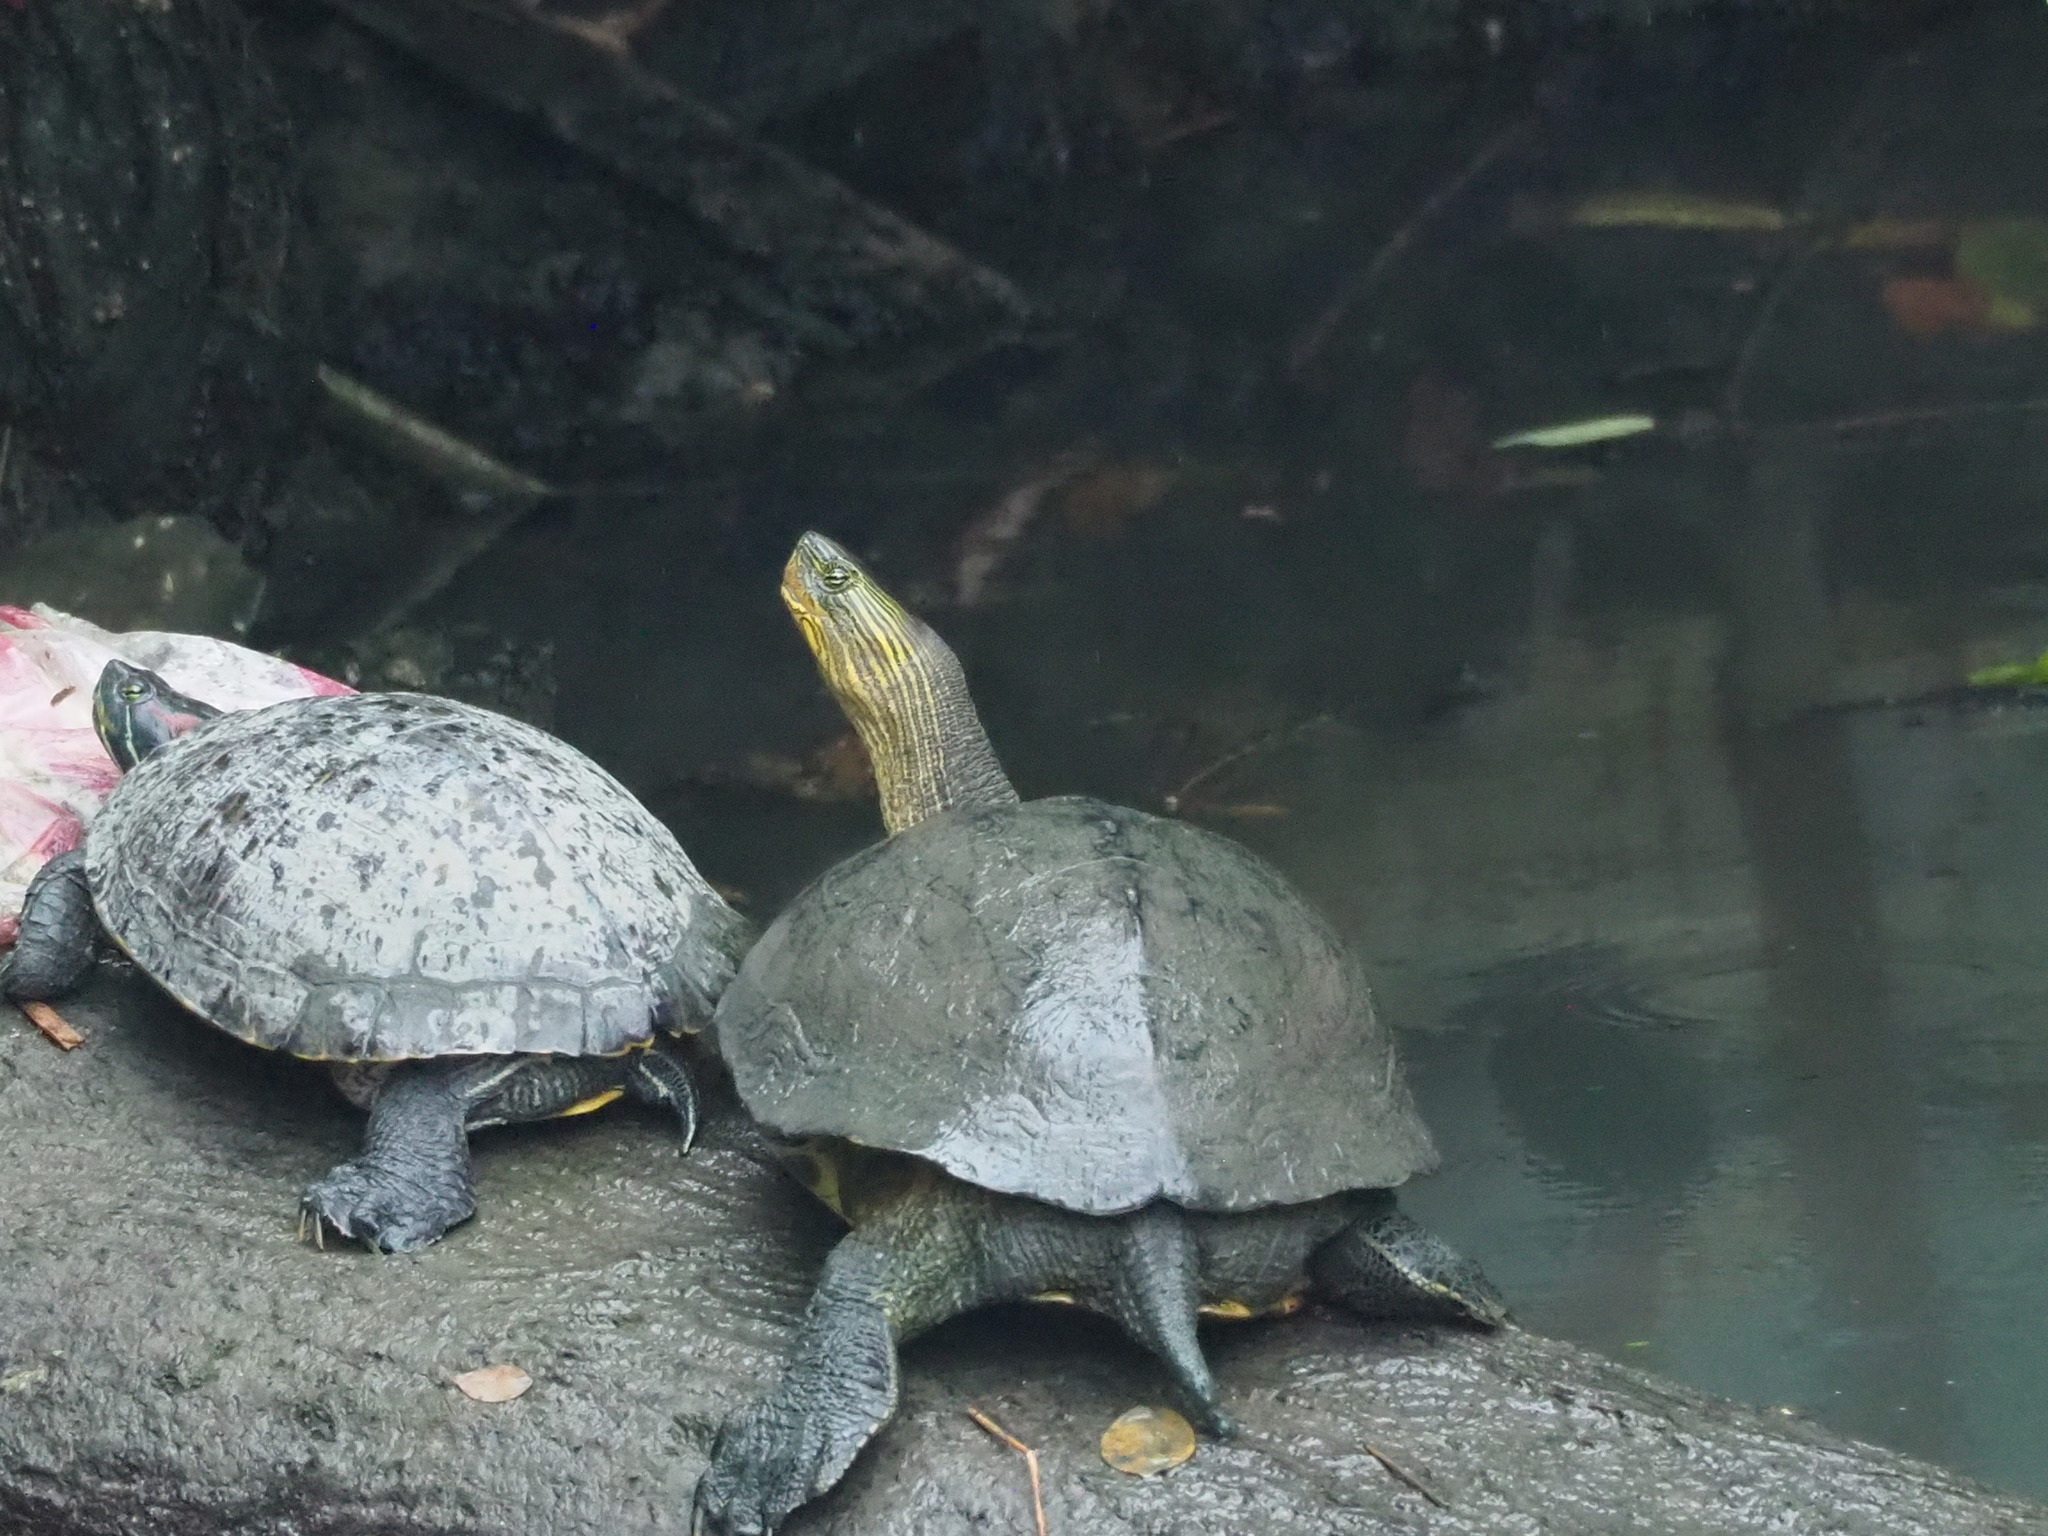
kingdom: Animalia
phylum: Chordata
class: Testudines
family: Geoemydidae
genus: Mauremys
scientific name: Mauremys sinensis
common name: Chinese stripe-necked turtle
